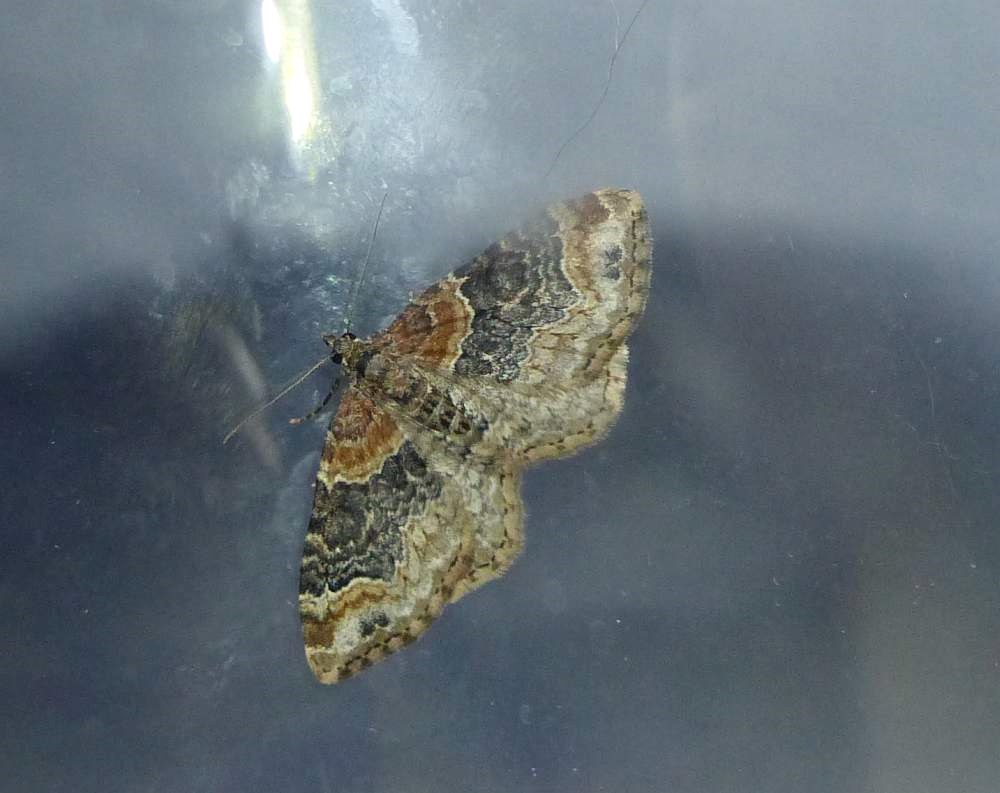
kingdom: Animalia
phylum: Arthropoda
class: Insecta
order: Lepidoptera
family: Geometridae
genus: Xanthorhoe
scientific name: Xanthorhoe ferrugata
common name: Dark-barred twin-spot carpet
